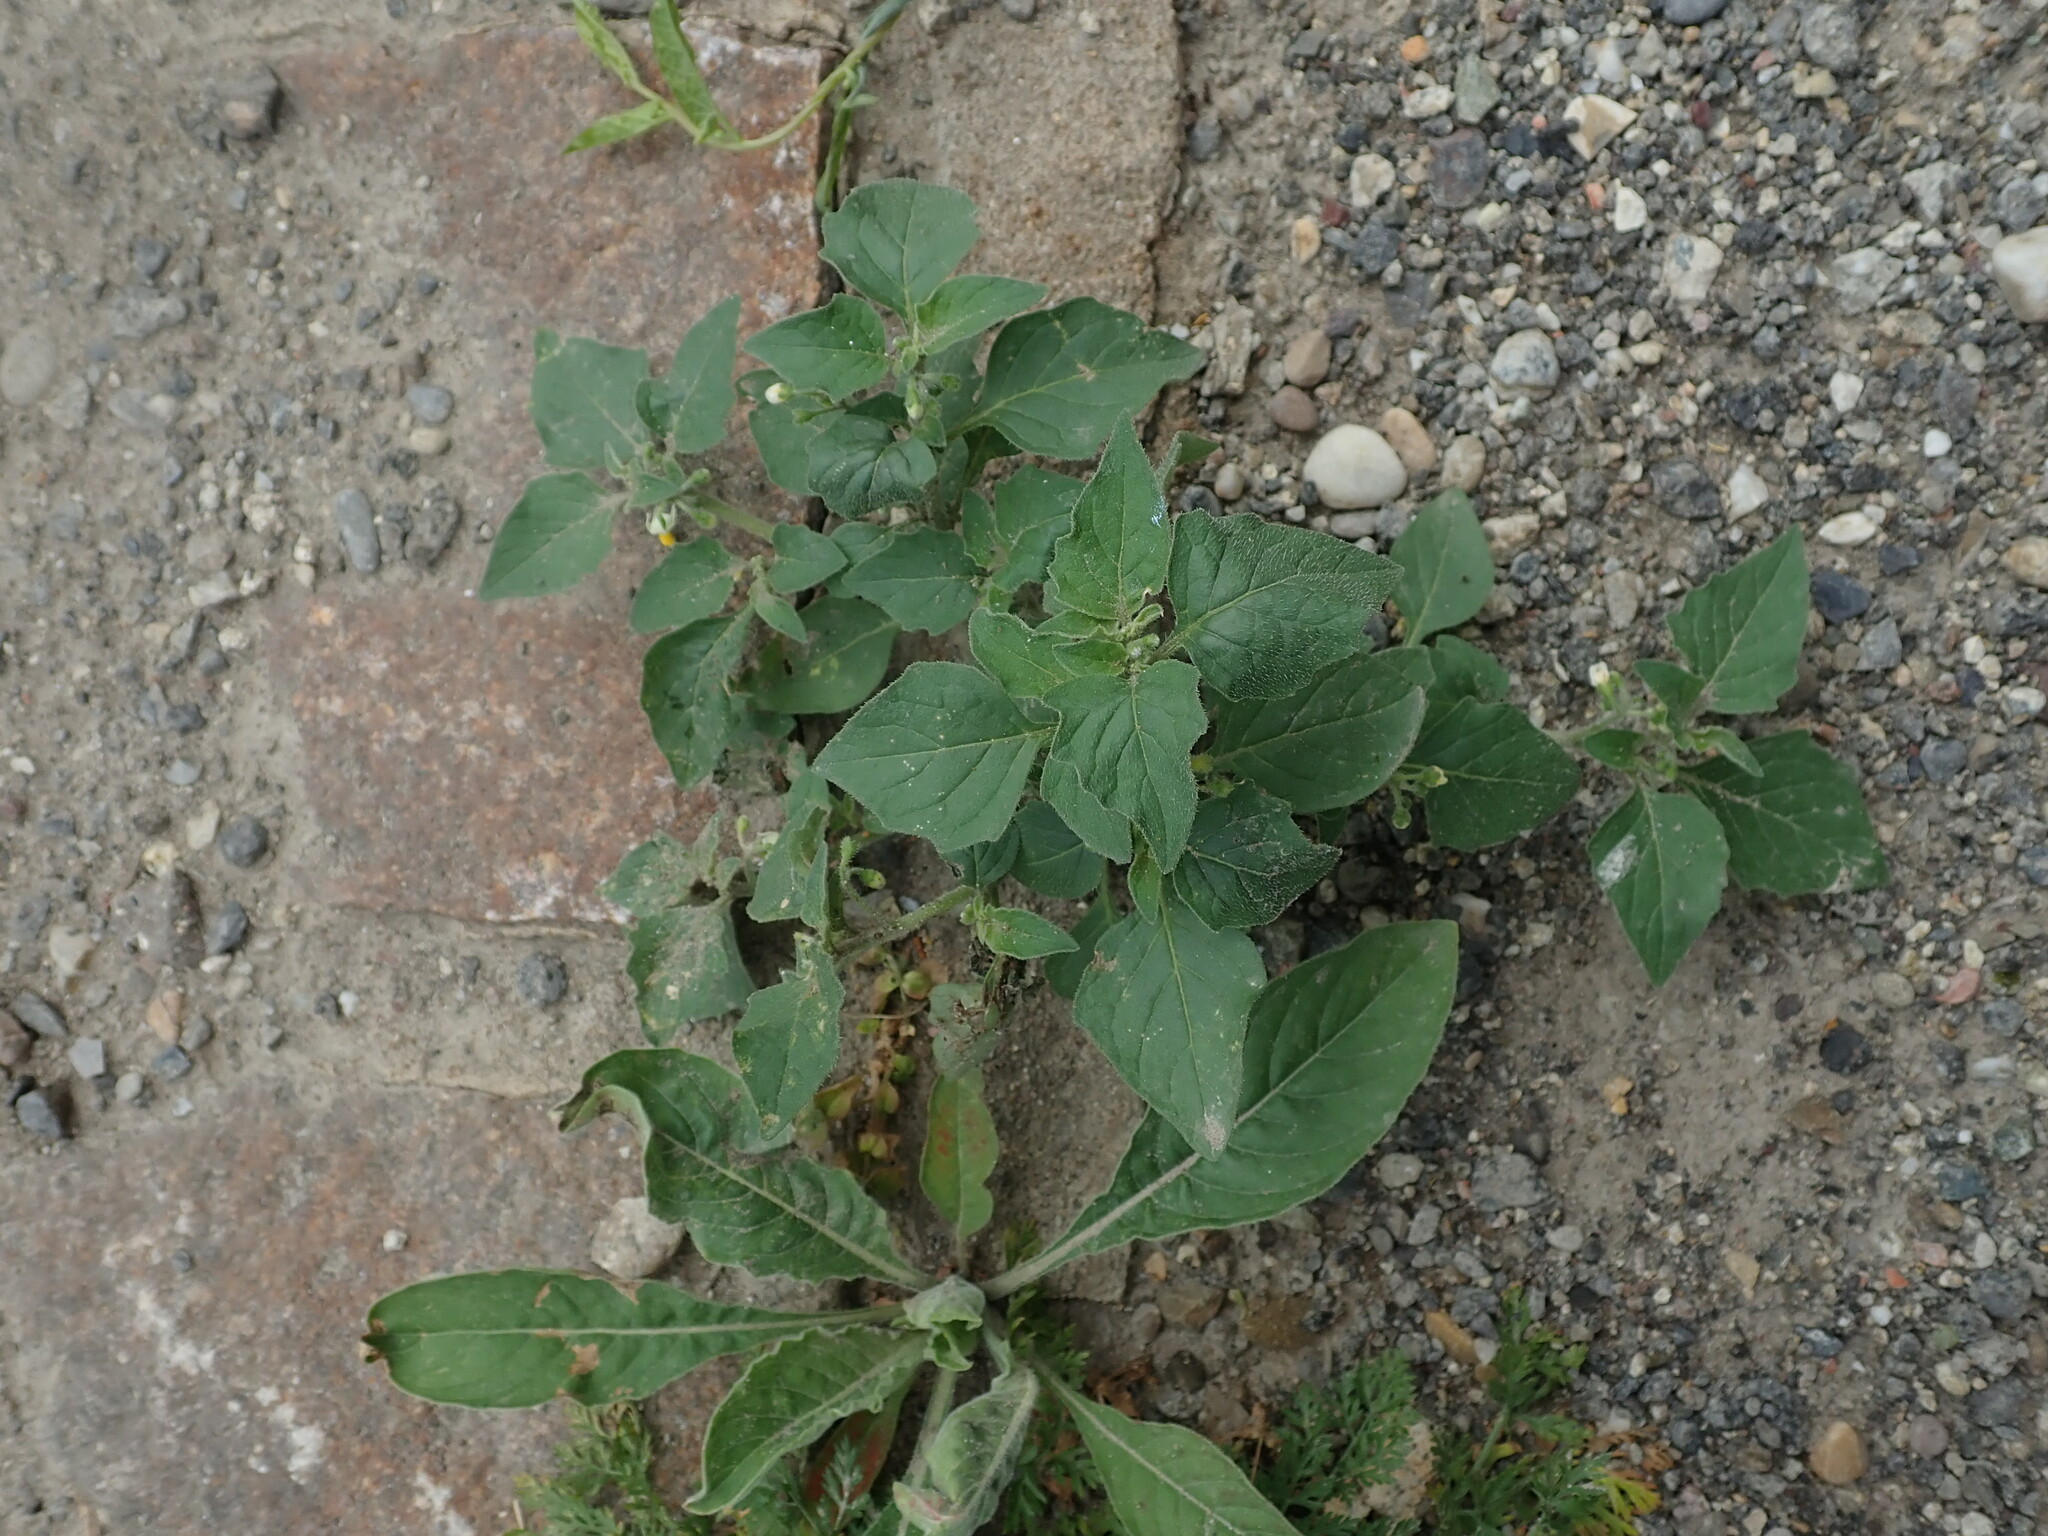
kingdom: Plantae
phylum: Tracheophyta
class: Magnoliopsida
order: Solanales
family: Solanaceae
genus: Solanum
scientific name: Solanum nigrum
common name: Black nightshade
